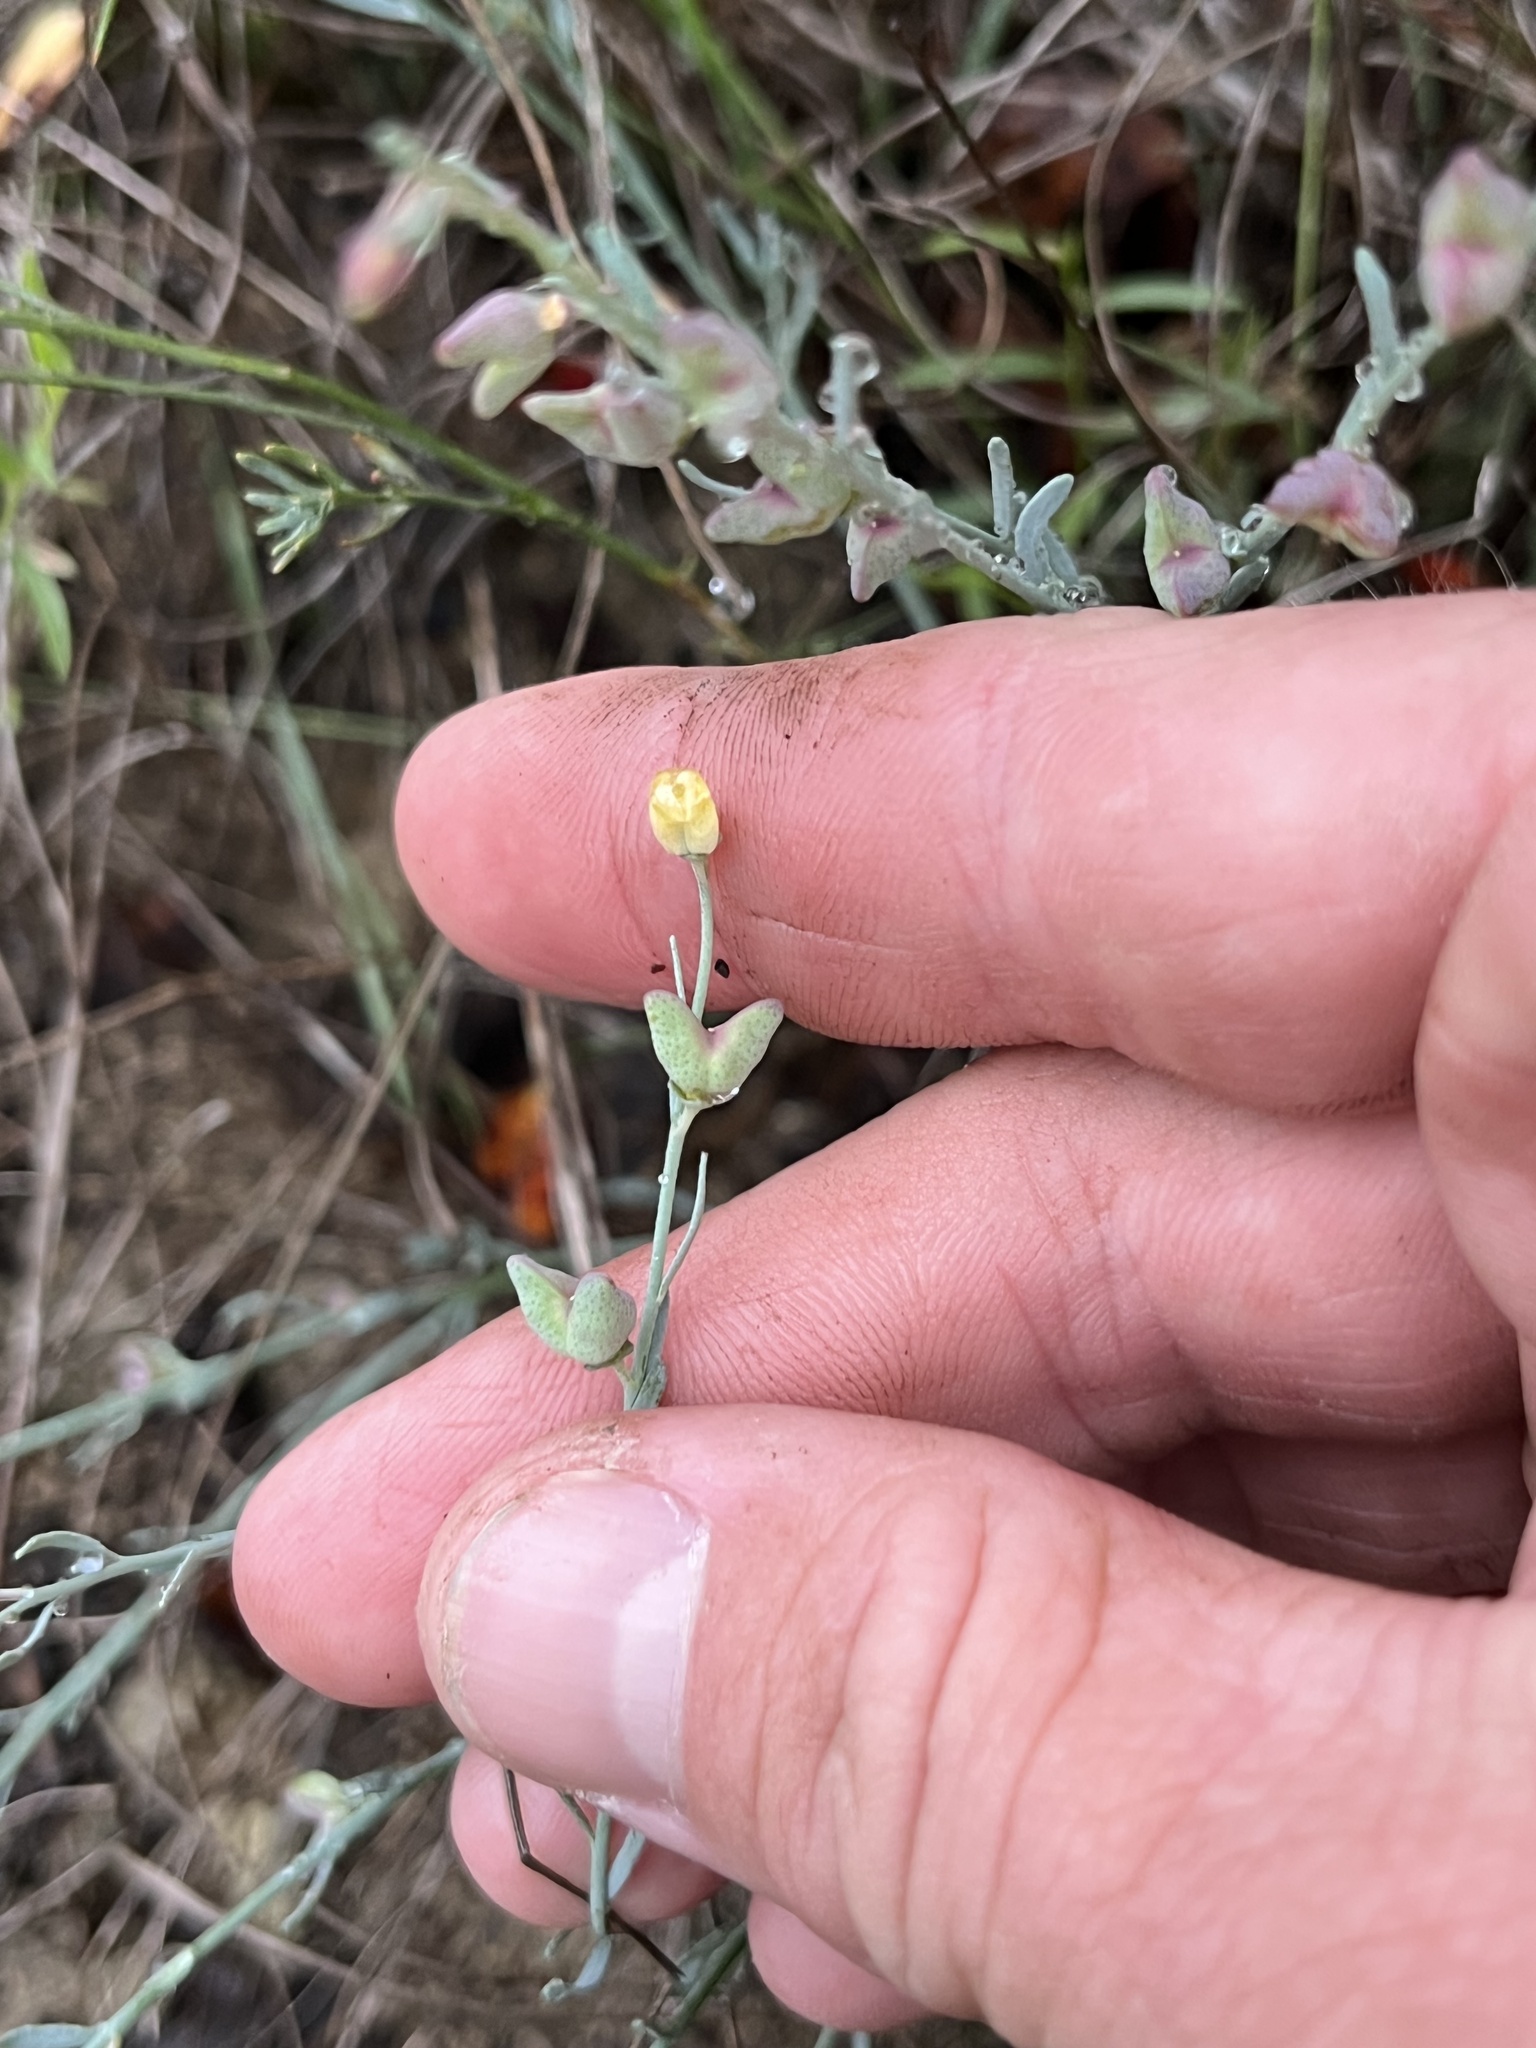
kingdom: Plantae
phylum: Tracheophyta
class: Magnoliopsida
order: Sapindales
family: Rutaceae
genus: Thamnosma
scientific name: Thamnosma texana
